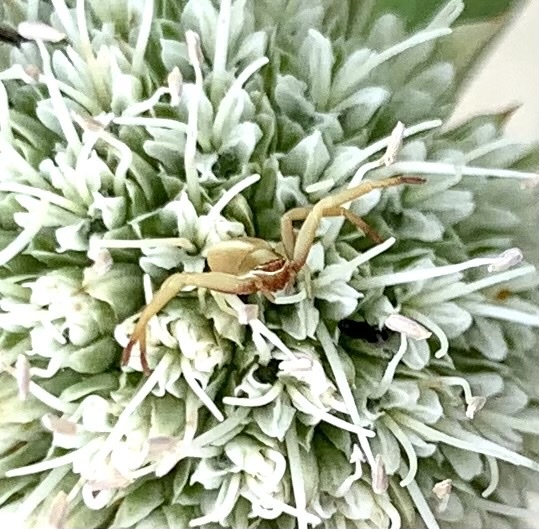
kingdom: Animalia
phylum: Arthropoda
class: Arachnida
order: Araneae
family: Thomisidae
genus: Misumenoides
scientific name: Misumenoides formosipes
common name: White-banded crab spider
